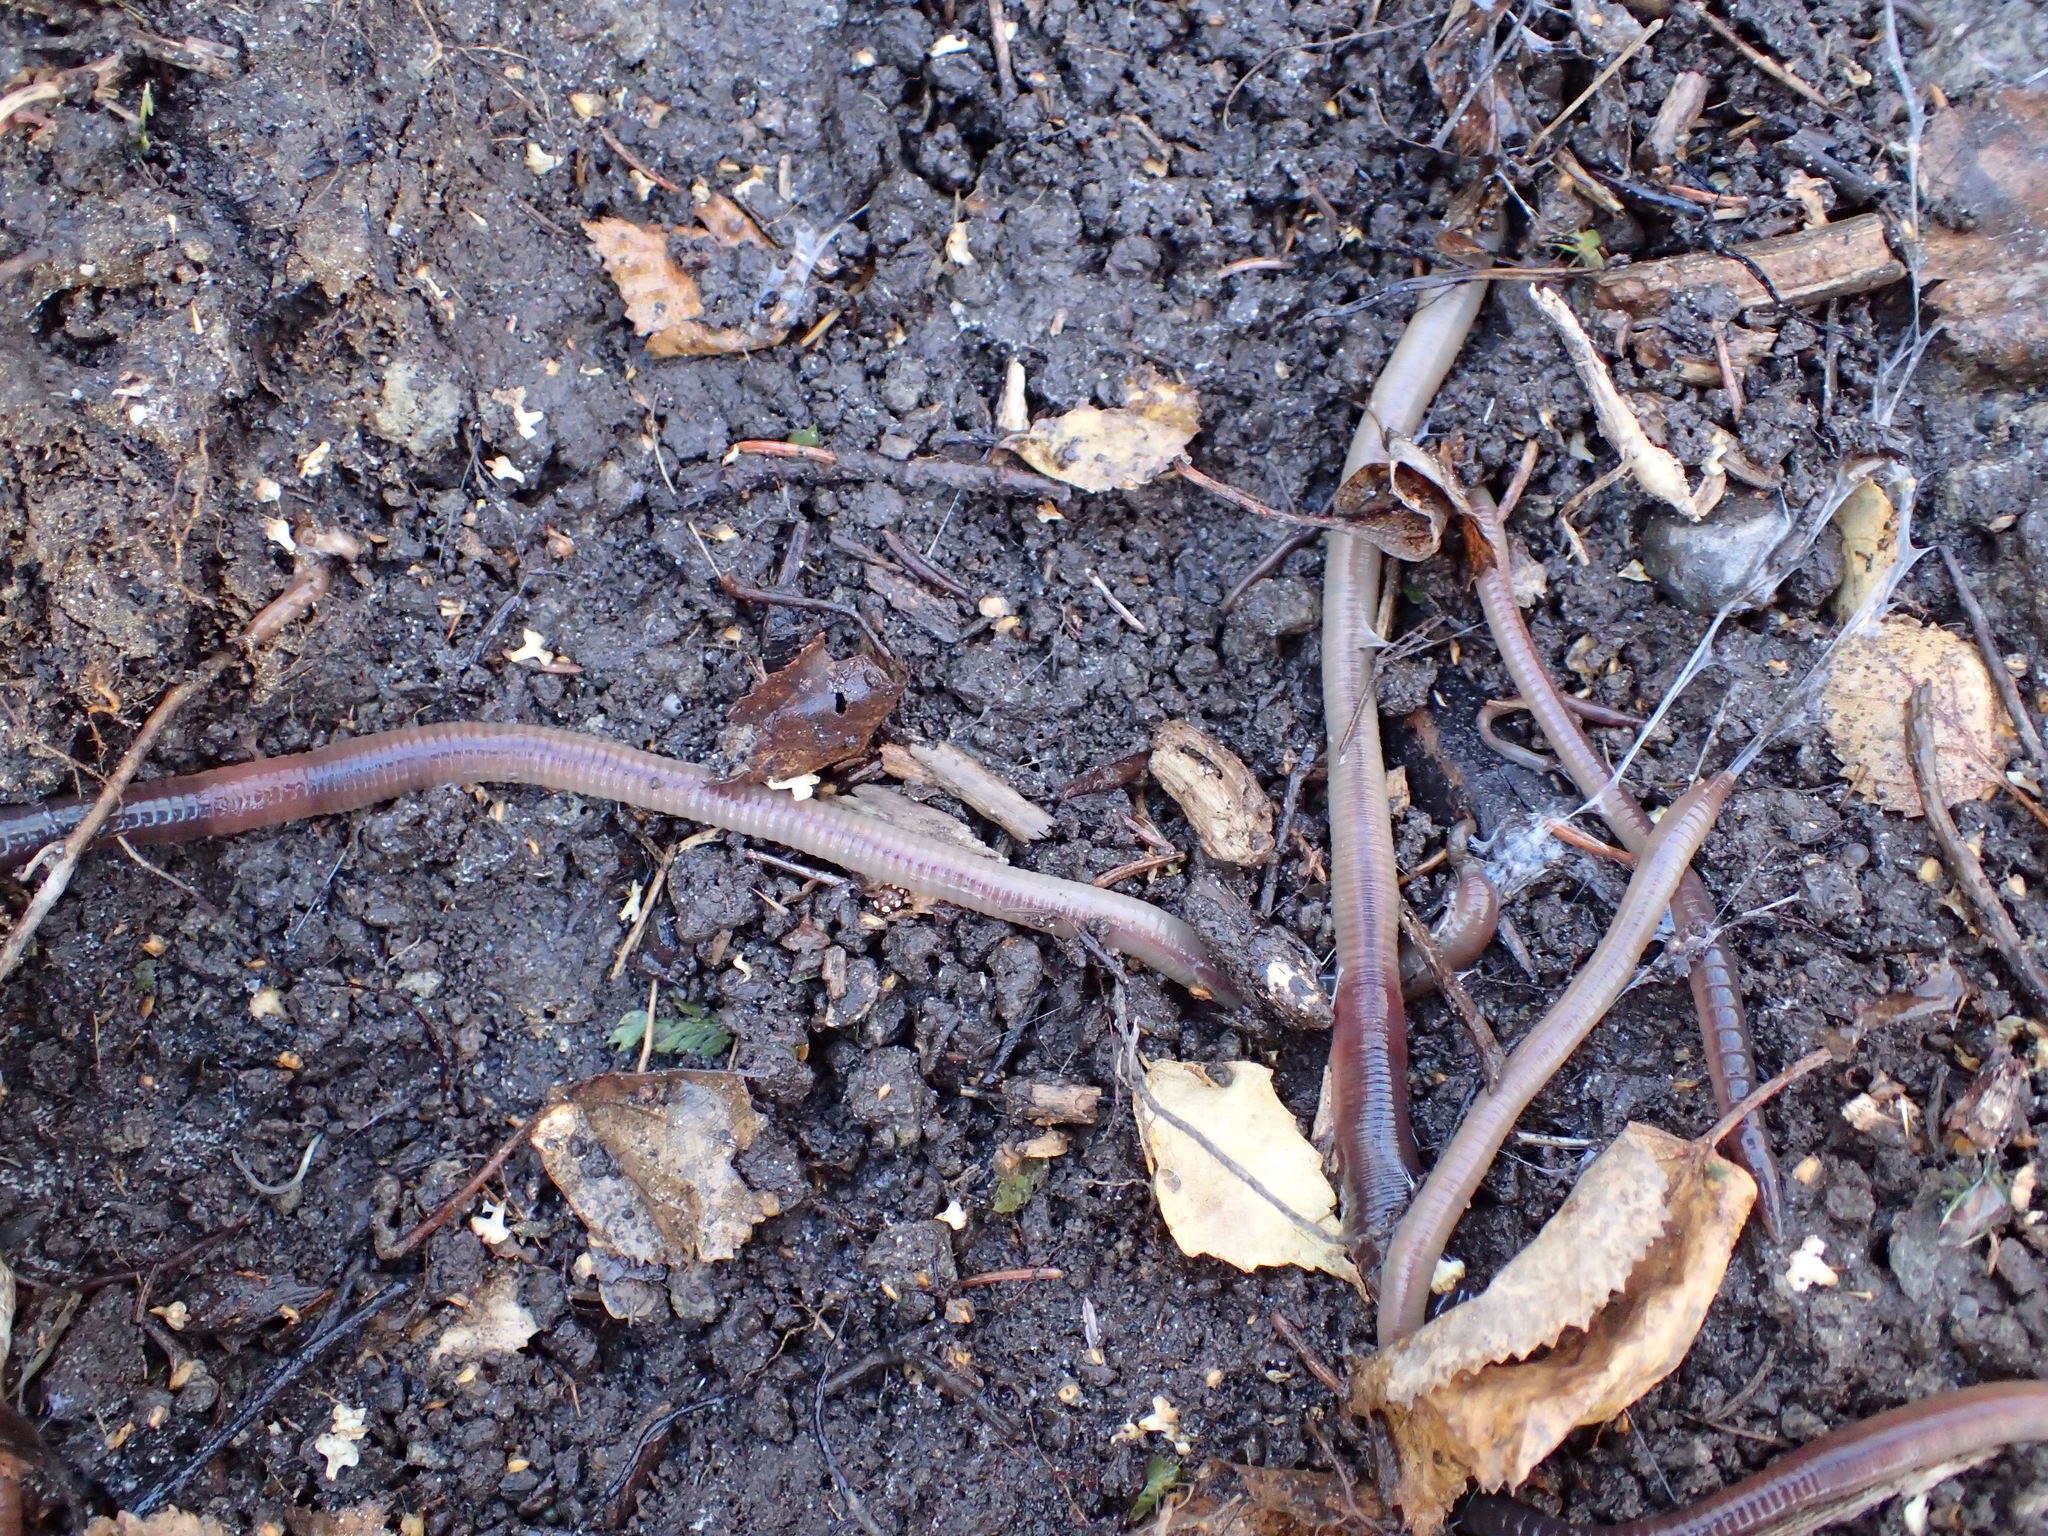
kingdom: Animalia
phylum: Annelida
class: Clitellata
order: Crassiclitellata
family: Lumbricidae
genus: Lumbricus
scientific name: Lumbricus terrestris
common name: Common earthworm
